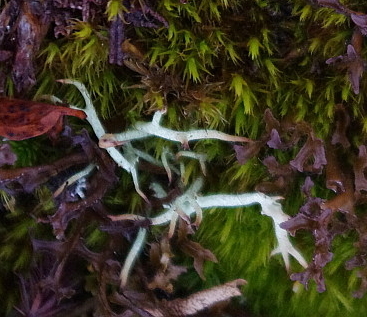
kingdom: Fungi
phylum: Ascomycota
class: Lecanoromycetes
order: Lecanorales
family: Cladoniaceae
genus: Cladonia
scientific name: Cladonia uncialis
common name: Thorn lichen
